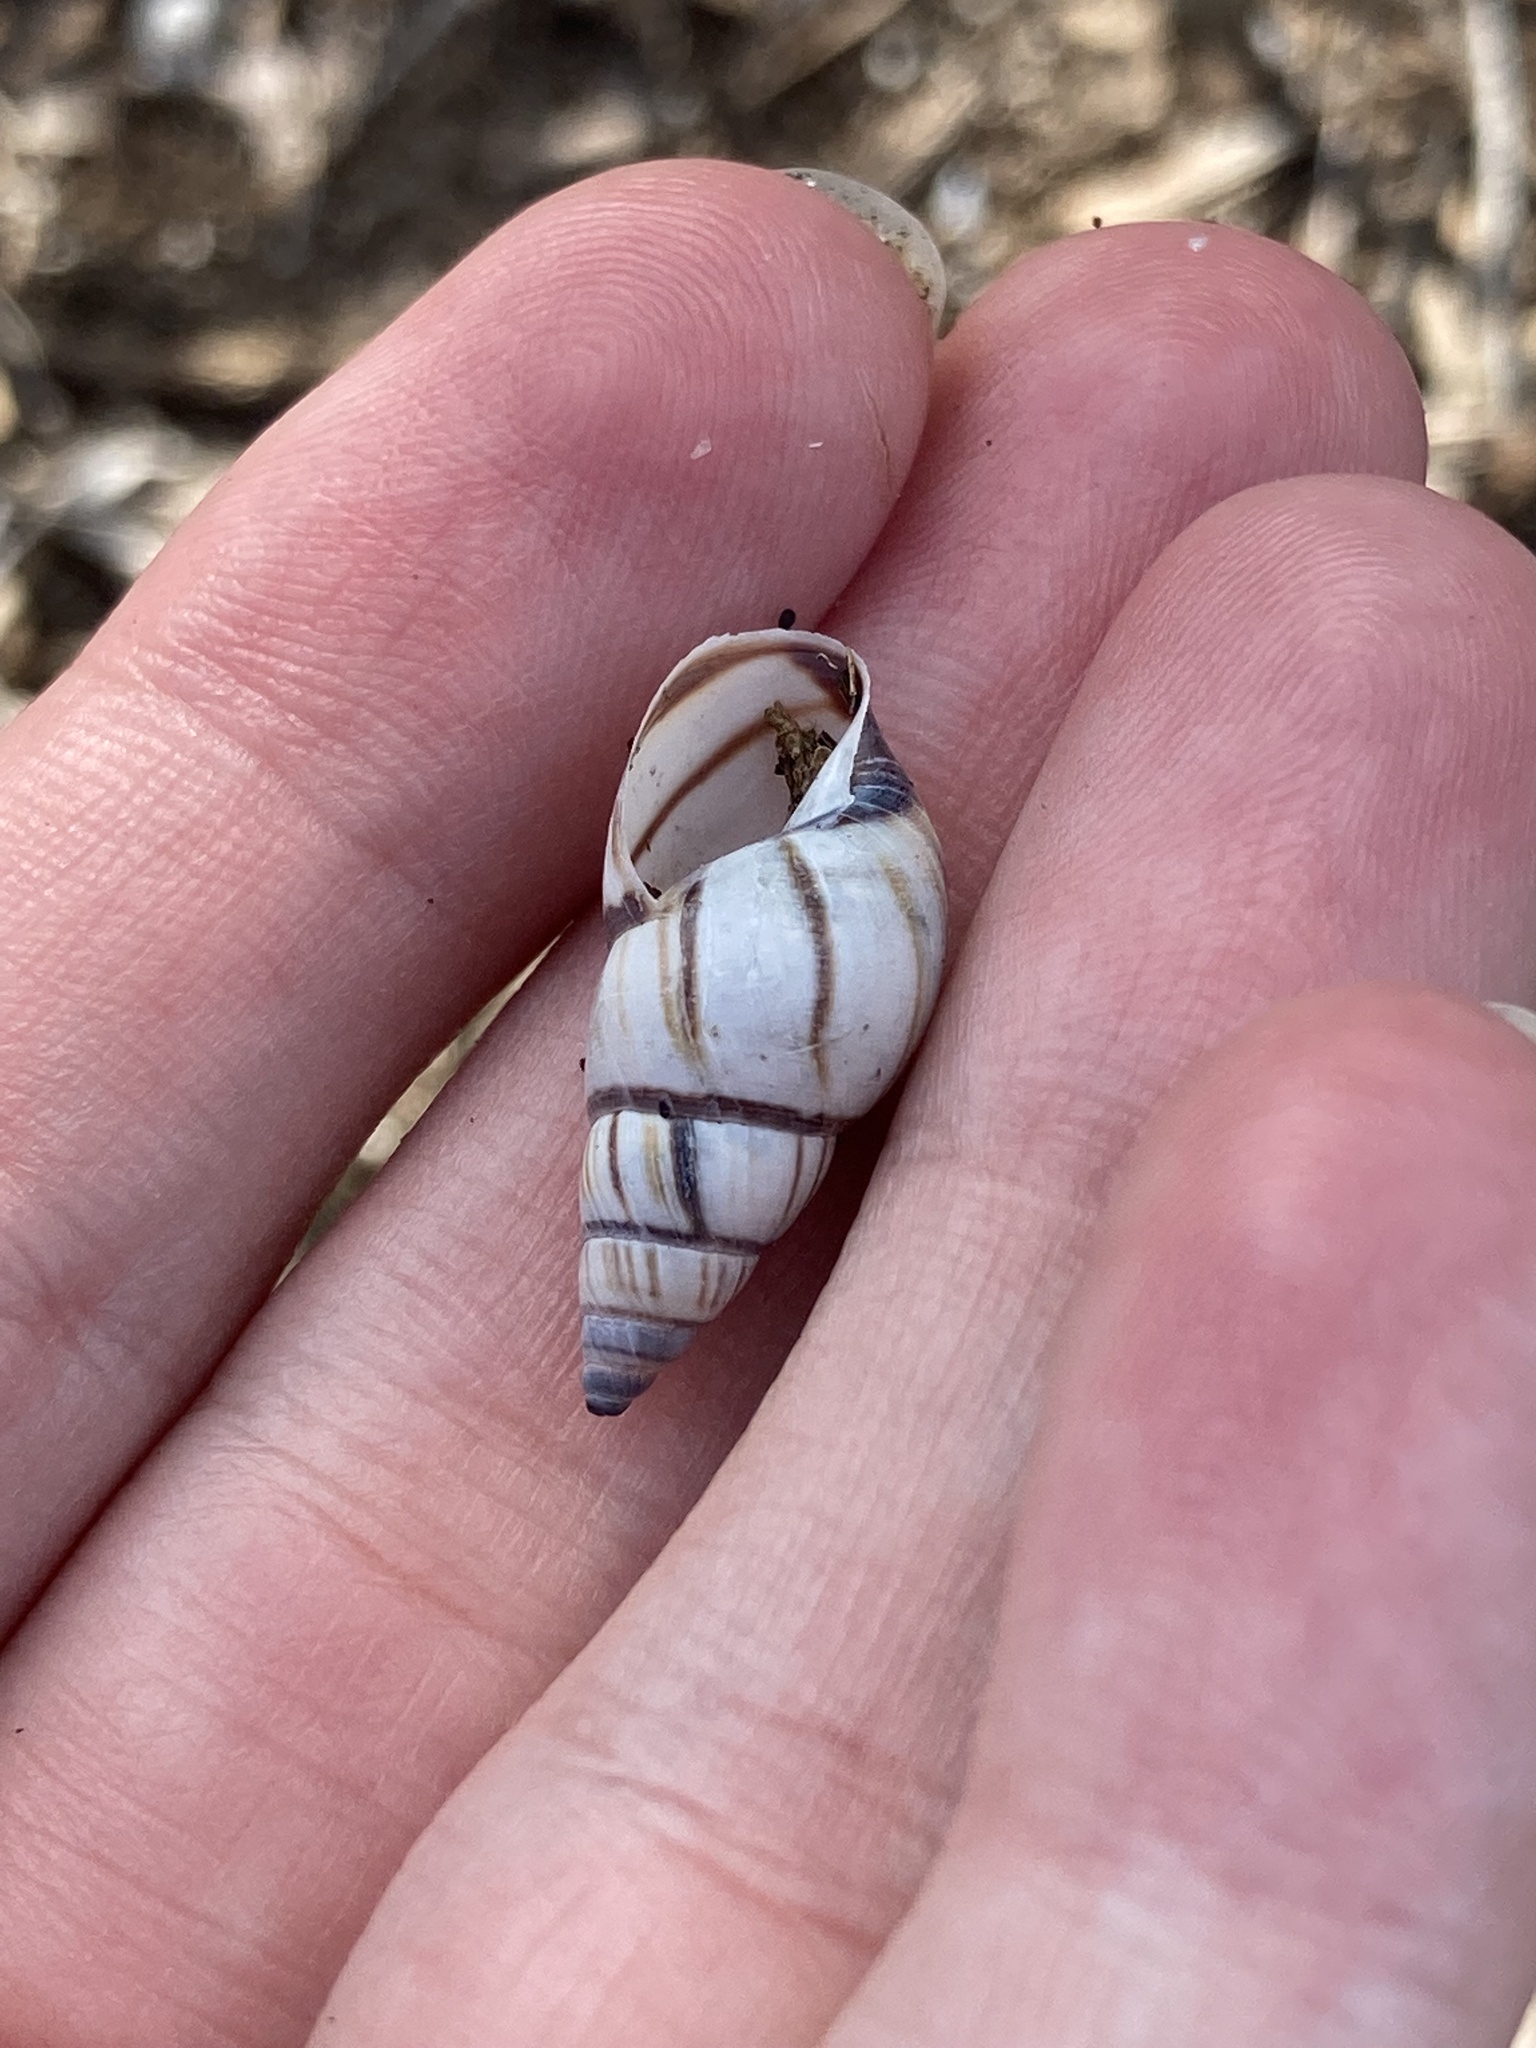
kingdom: Animalia
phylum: Mollusca
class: Gastropoda
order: Stylommatophora
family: Bulimulidae
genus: Drymaeus
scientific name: Drymaeus
